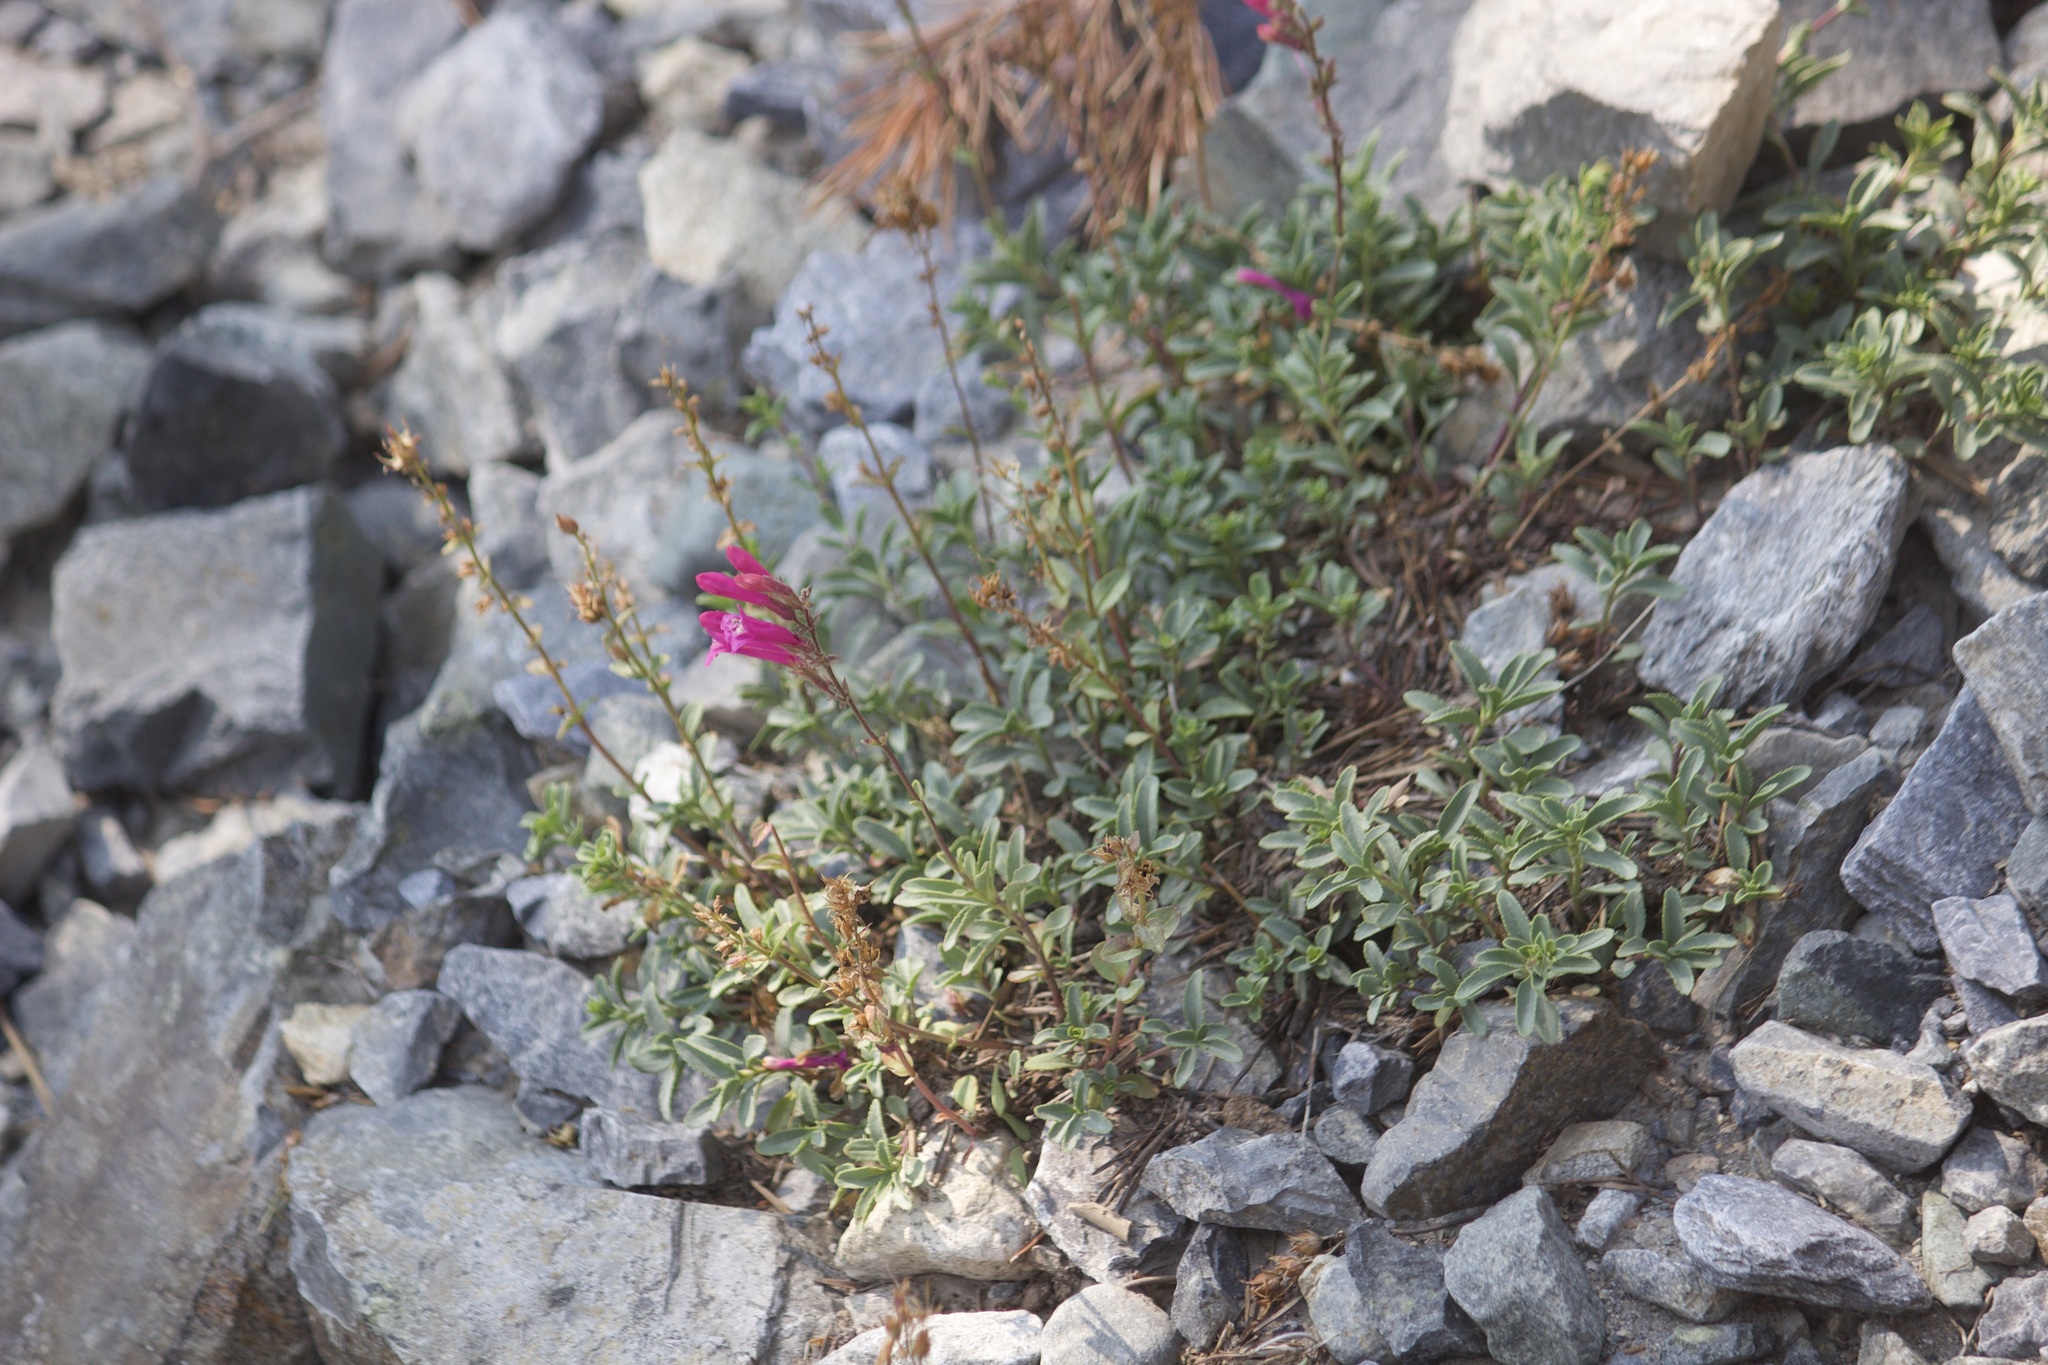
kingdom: Plantae
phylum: Tracheophyta
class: Magnoliopsida
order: Lamiales
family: Plantaginaceae
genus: Penstemon
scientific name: Penstemon newberryi
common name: Mountain-pride
